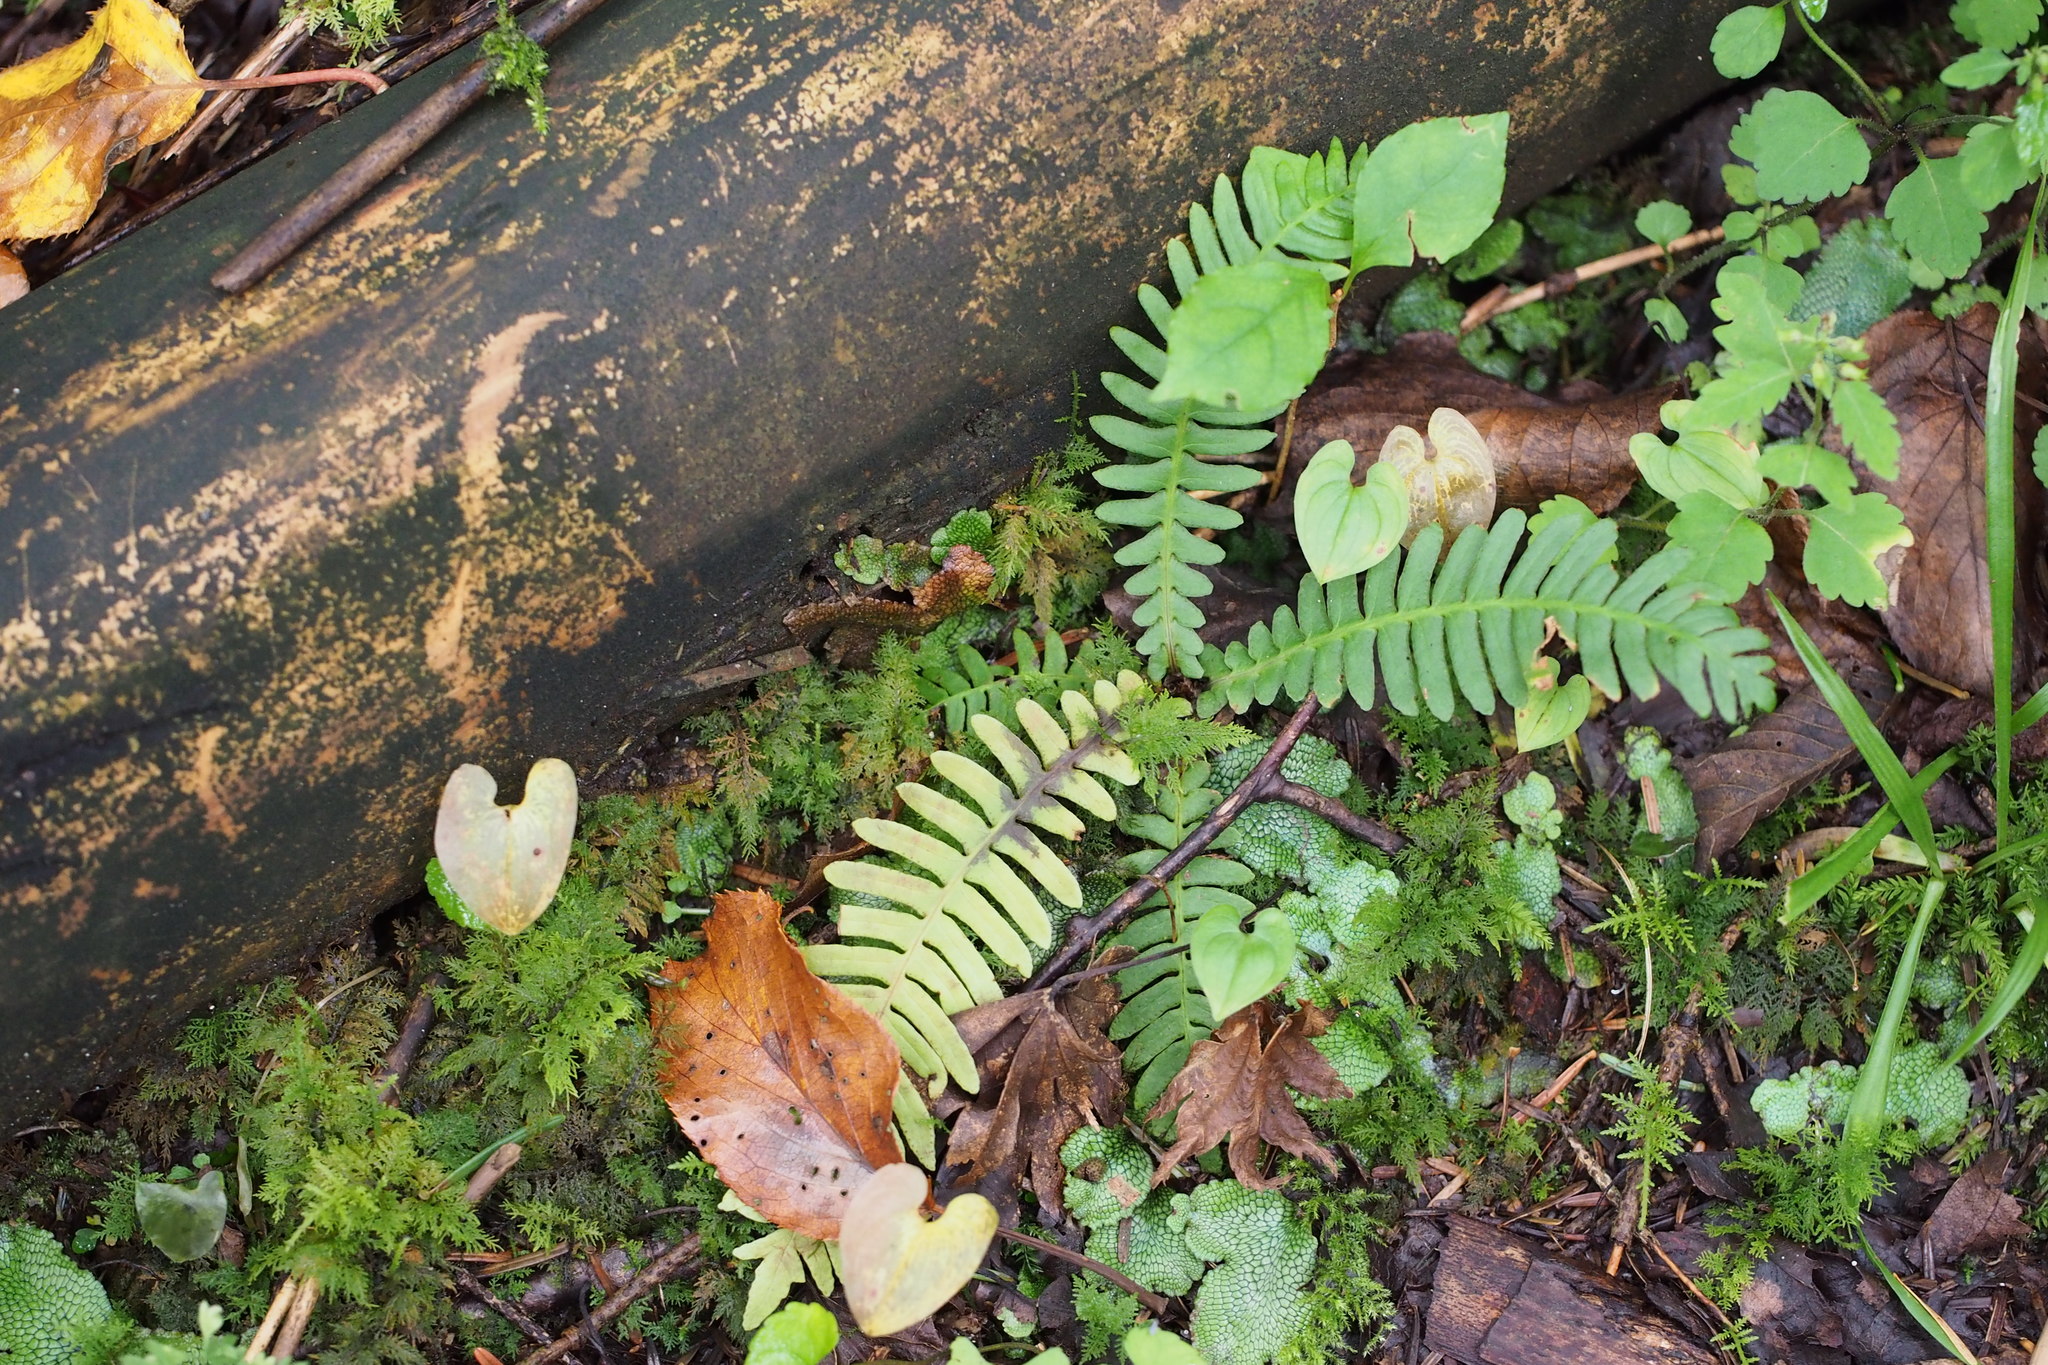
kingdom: Plantae
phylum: Tracheophyta
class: Polypodiopsida
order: Polypodiales
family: Blechnaceae
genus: Spicantopsis
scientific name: Spicantopsis niponica
